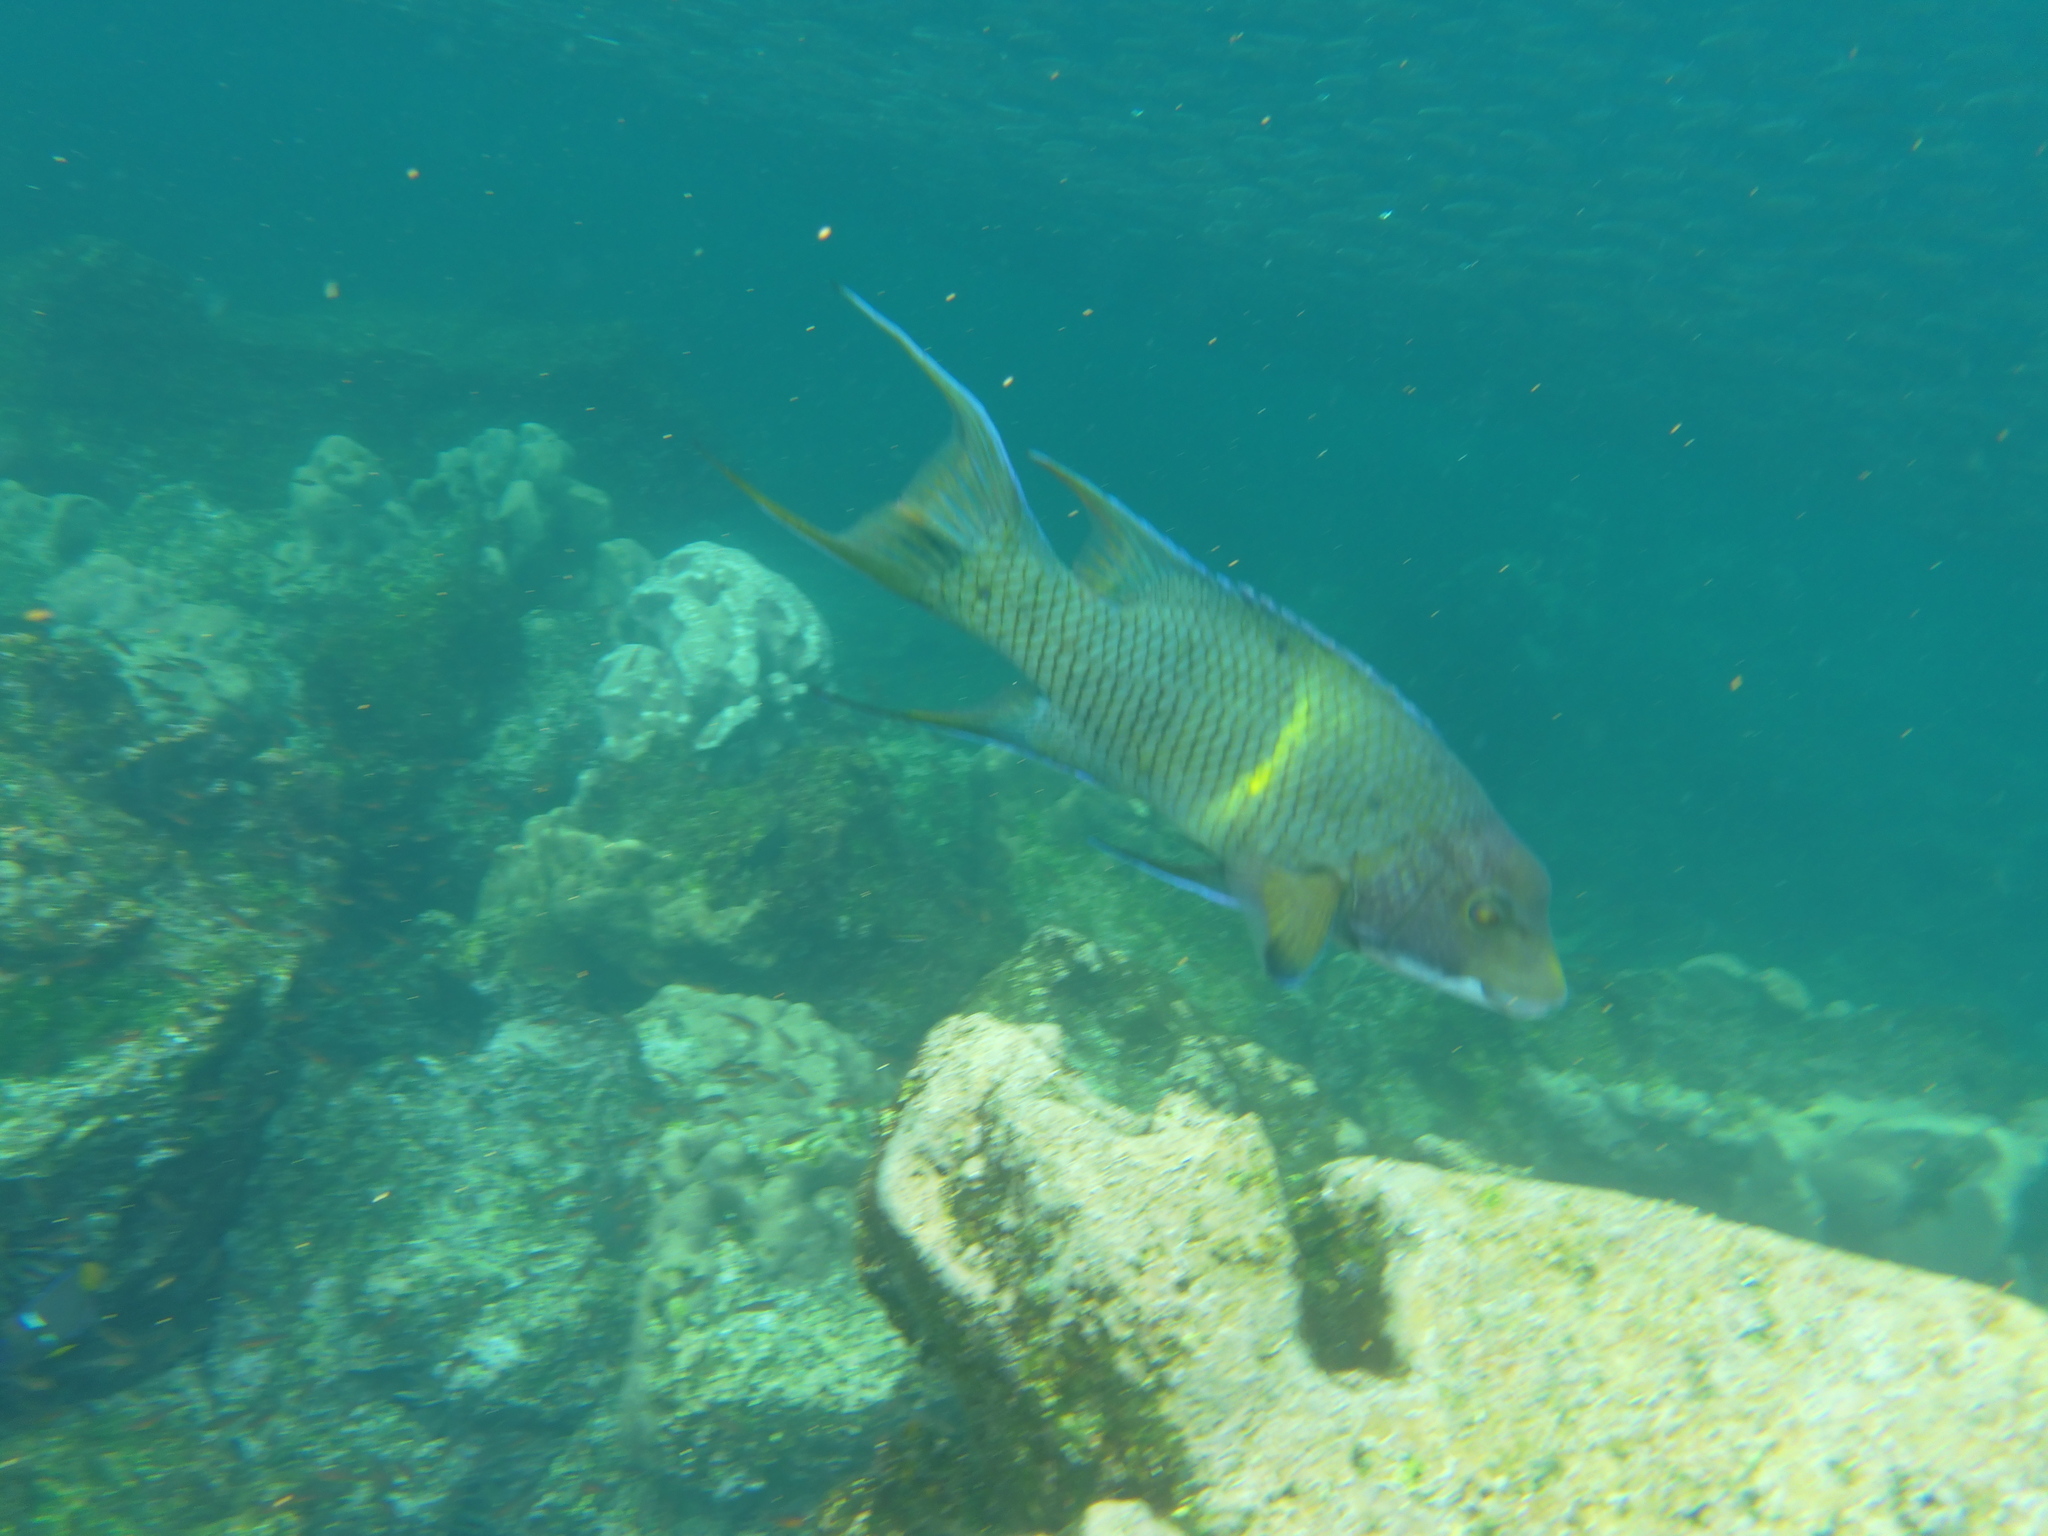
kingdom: Animalia
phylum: Chordata
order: Perciformes
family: Labridae
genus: Bodianus
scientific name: Bodianus diplotaenia
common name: Mexican hogfish
